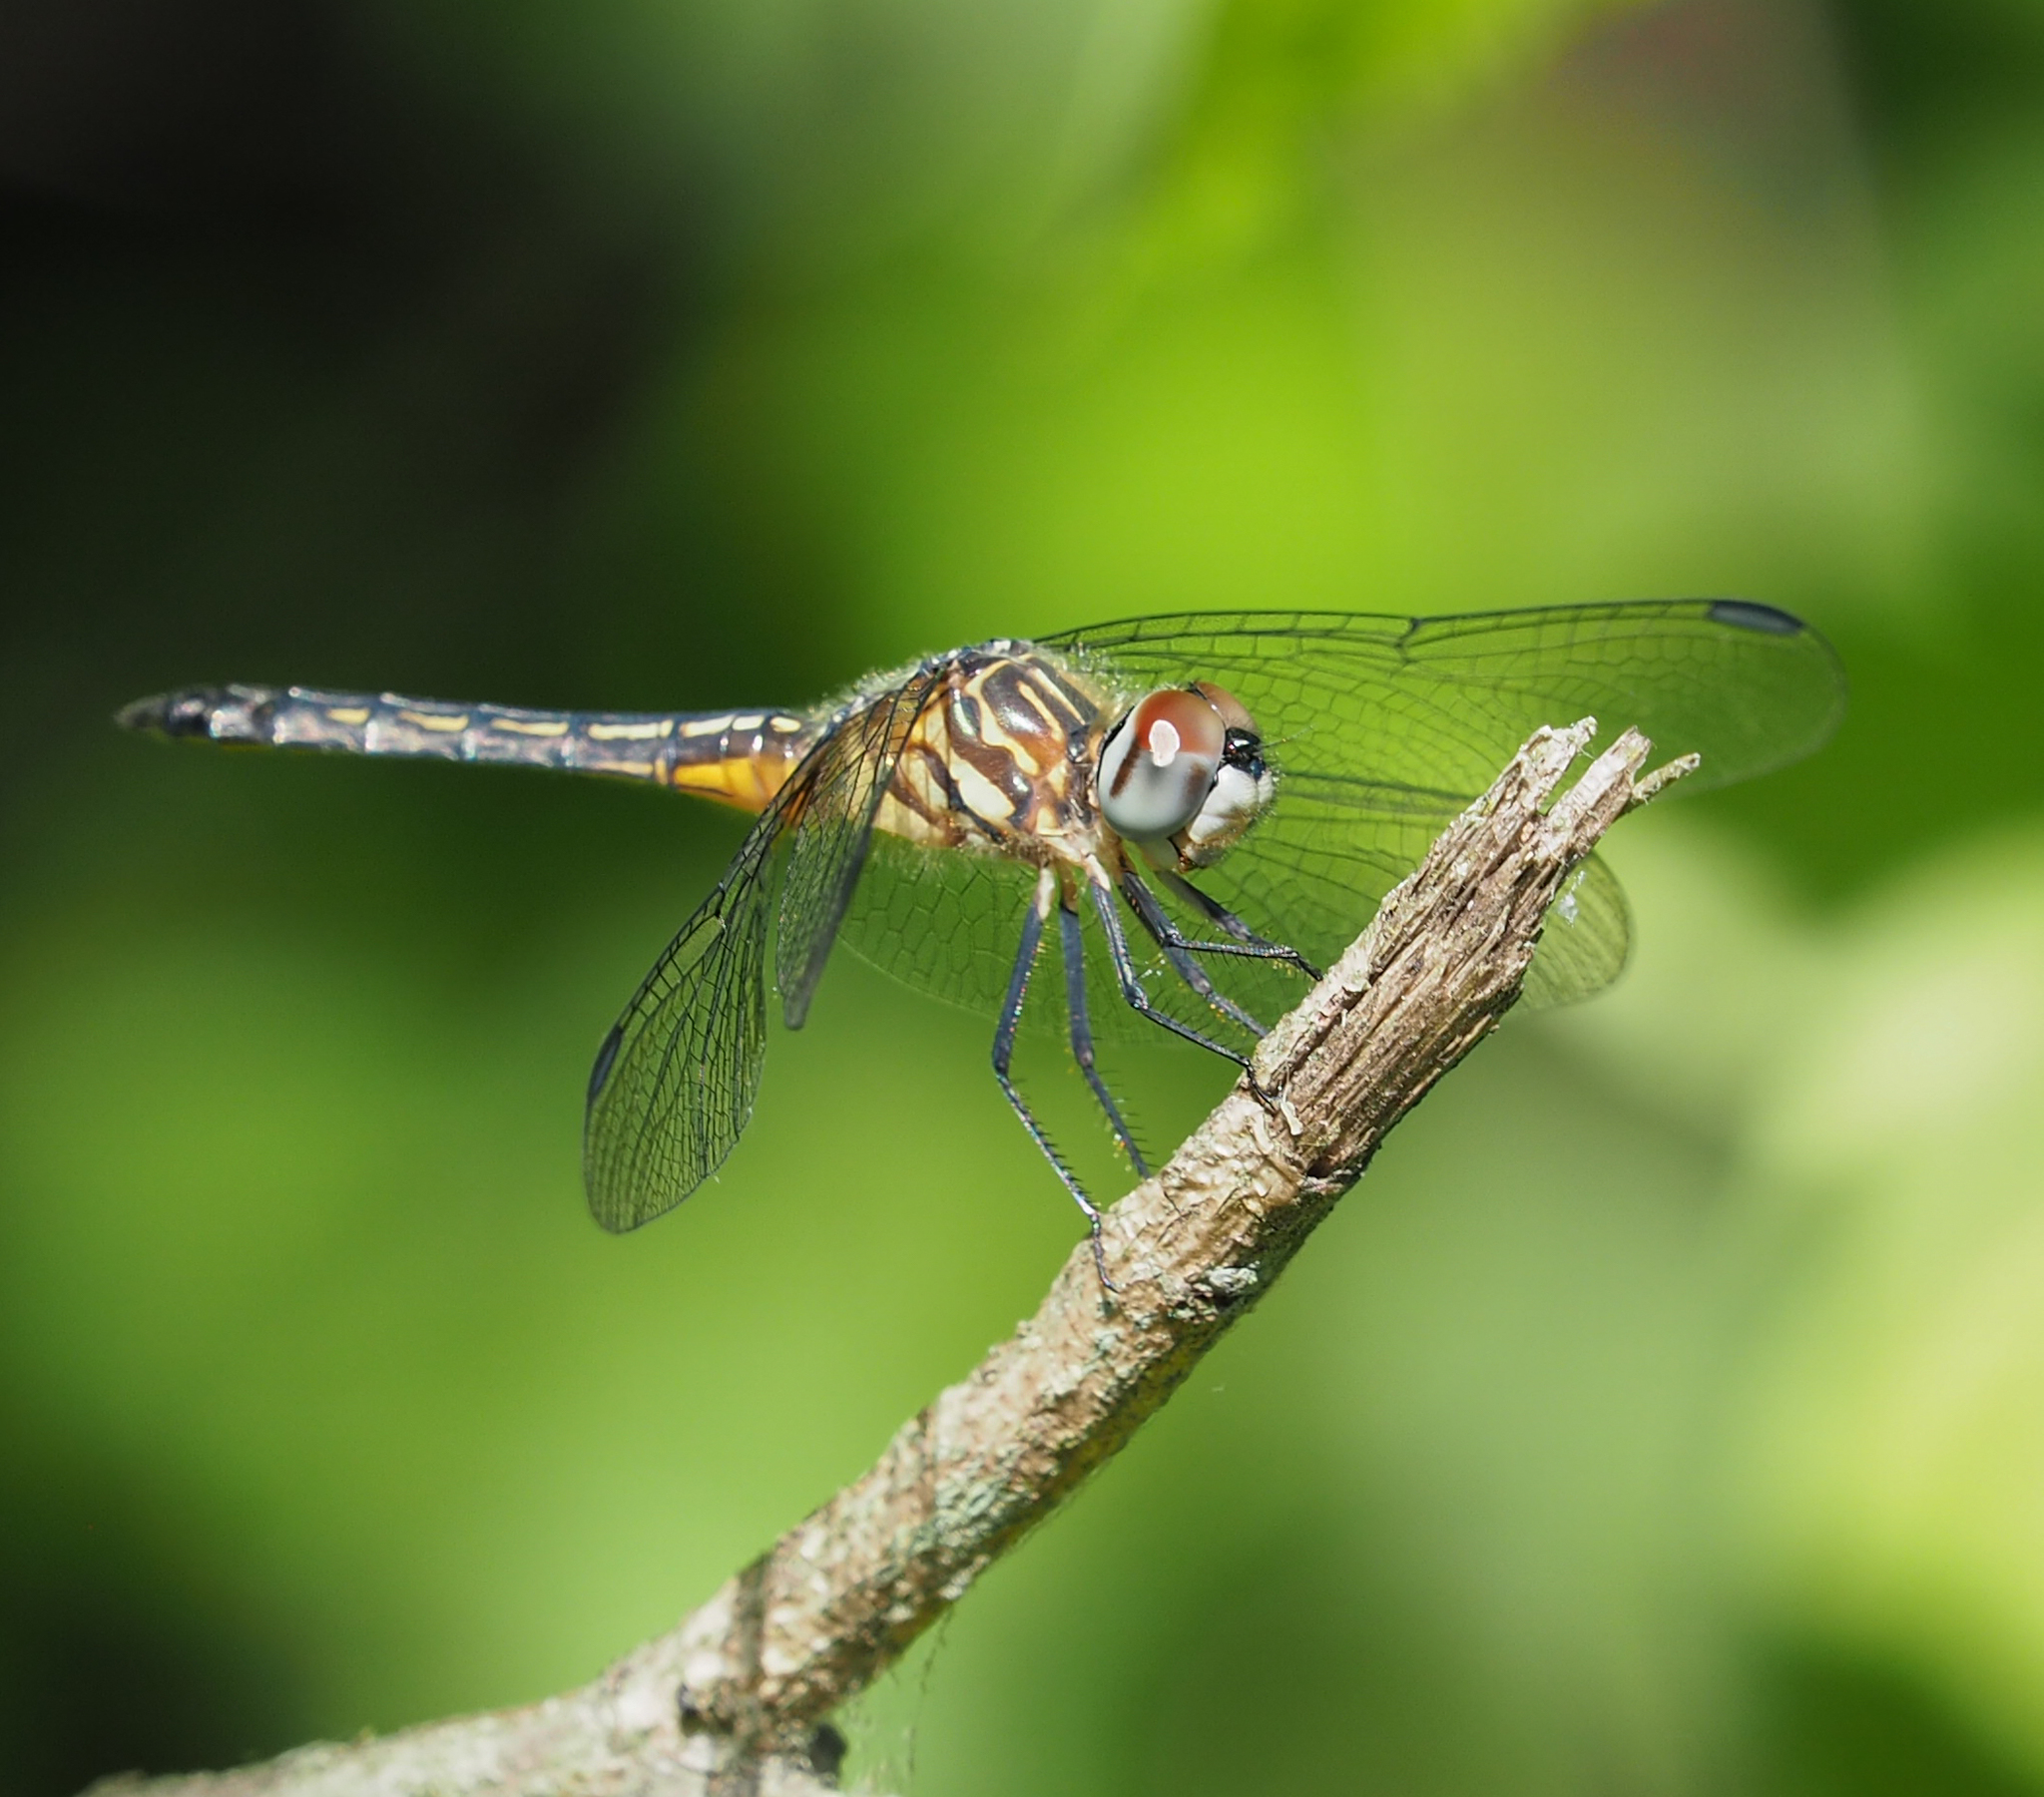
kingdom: Animalia
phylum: Arthropoda
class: Insecta
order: Odonata
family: Libellulidae
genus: Pachydiplax
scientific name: Pachydiplax longipennis
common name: Blue dasher
